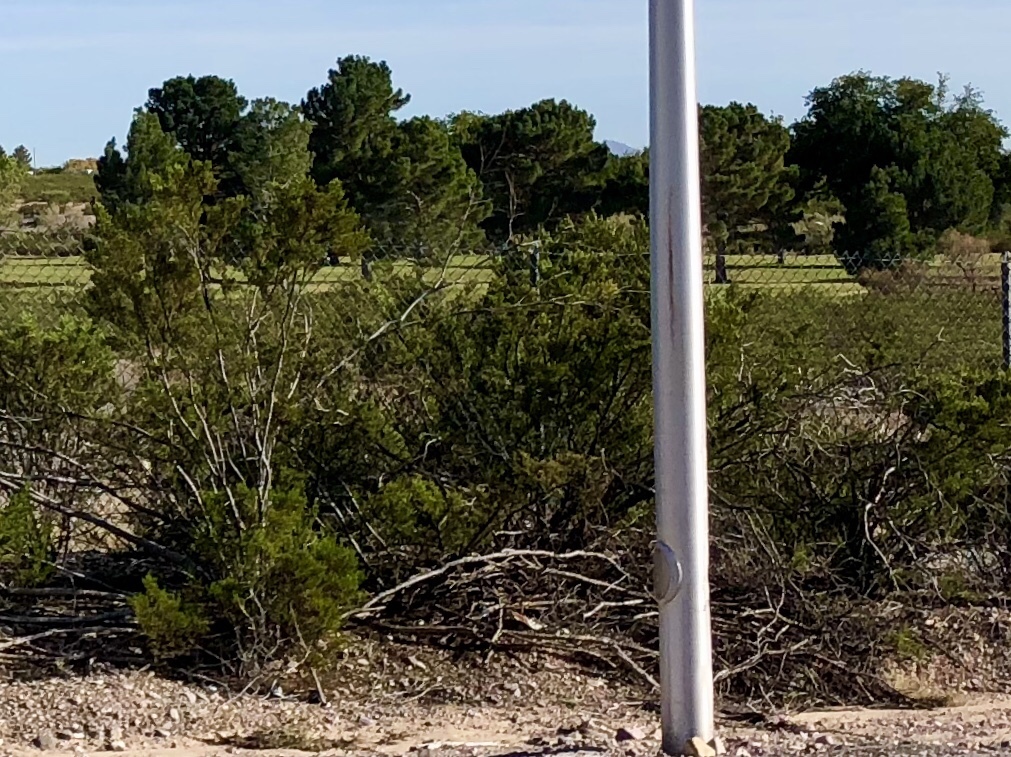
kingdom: Plantae
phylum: Tracheophyta
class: Magnoliopsida
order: Zygophyllales
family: Zygophyllaceae
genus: Larrea
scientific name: Larrea tridentata
